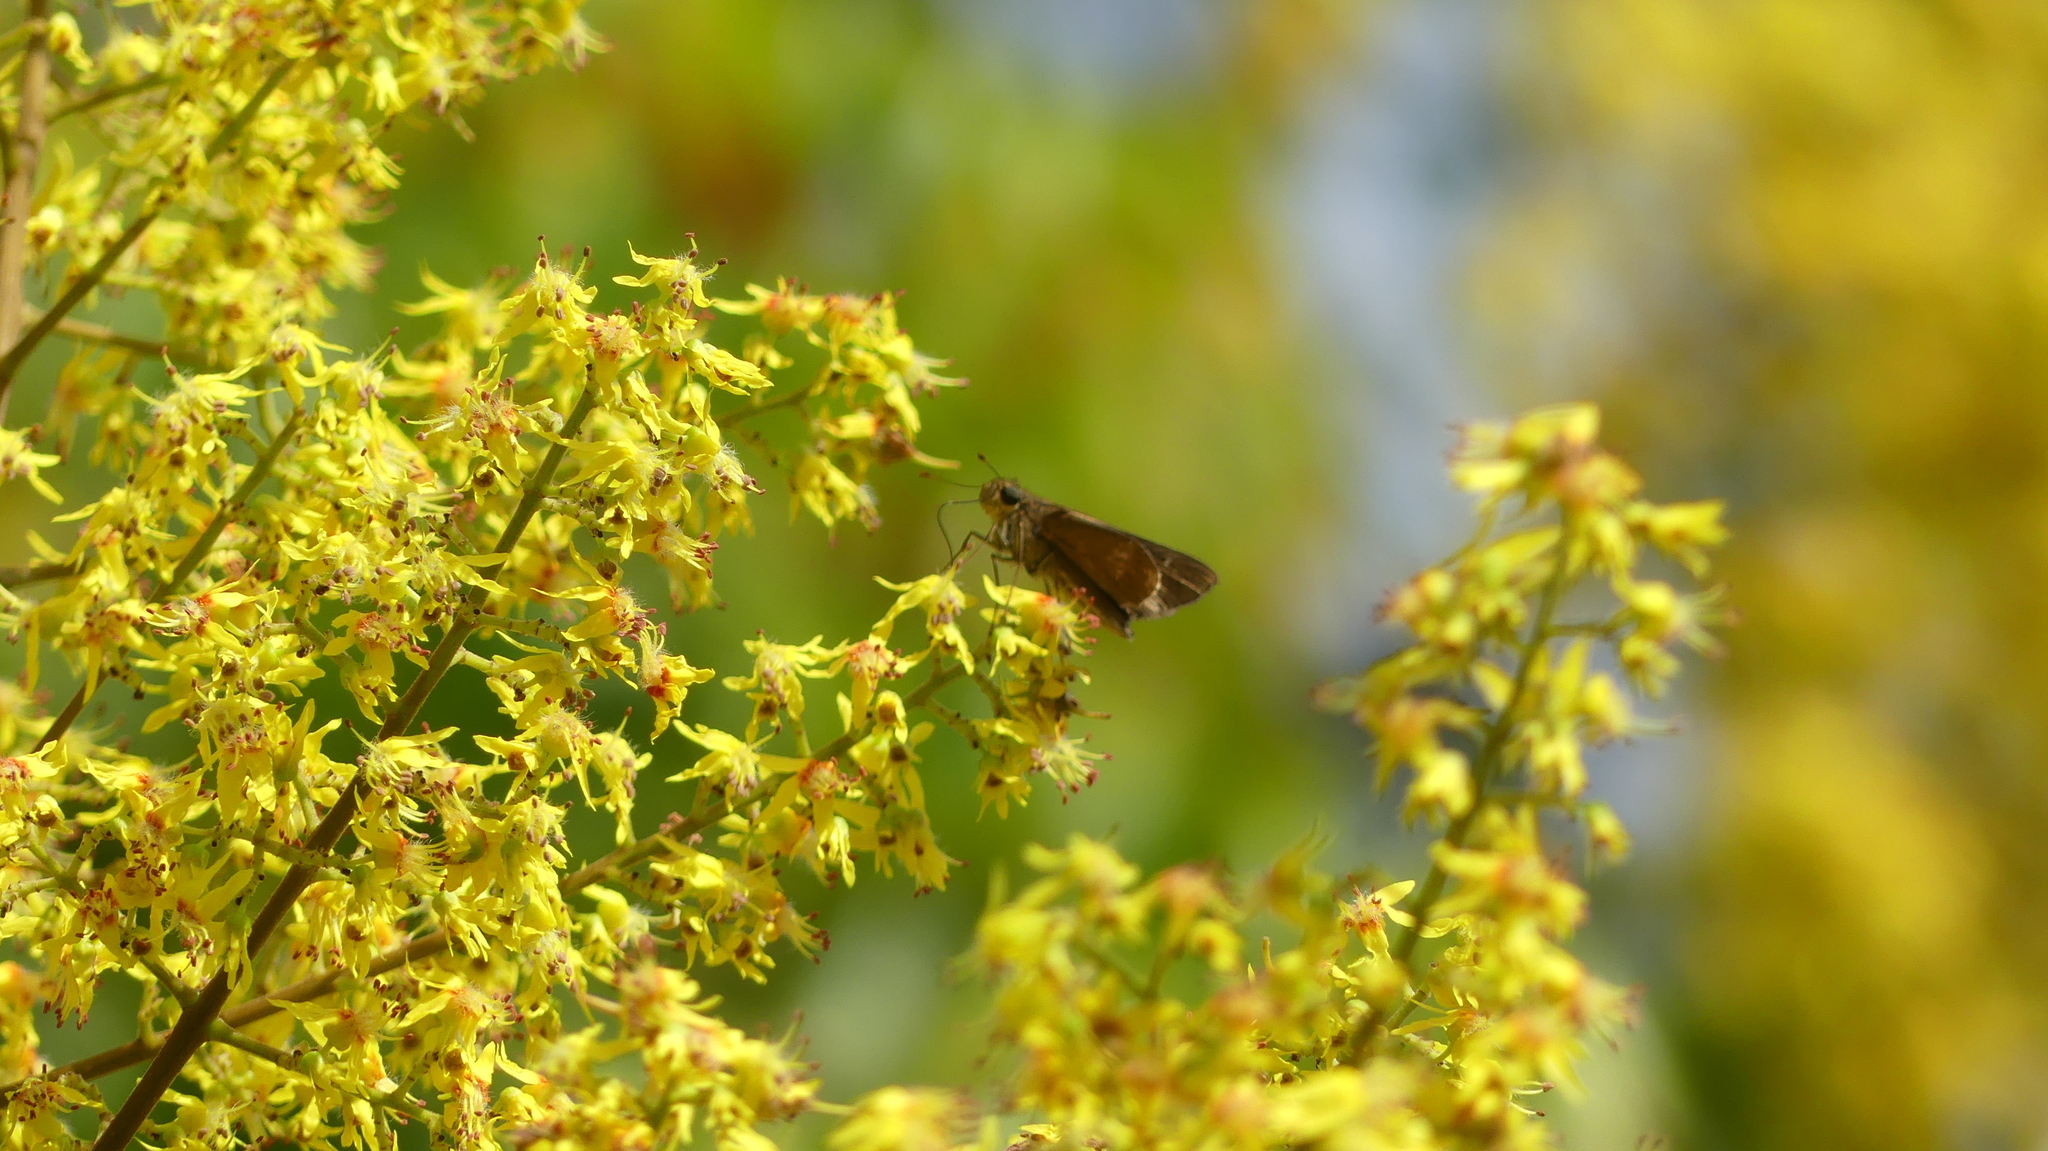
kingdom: Animalia
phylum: Arthropoda
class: Insecta
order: Lepidoptera
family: Hesperiidae
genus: Panoquina
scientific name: Panoquina ocola
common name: Ocola skipper
